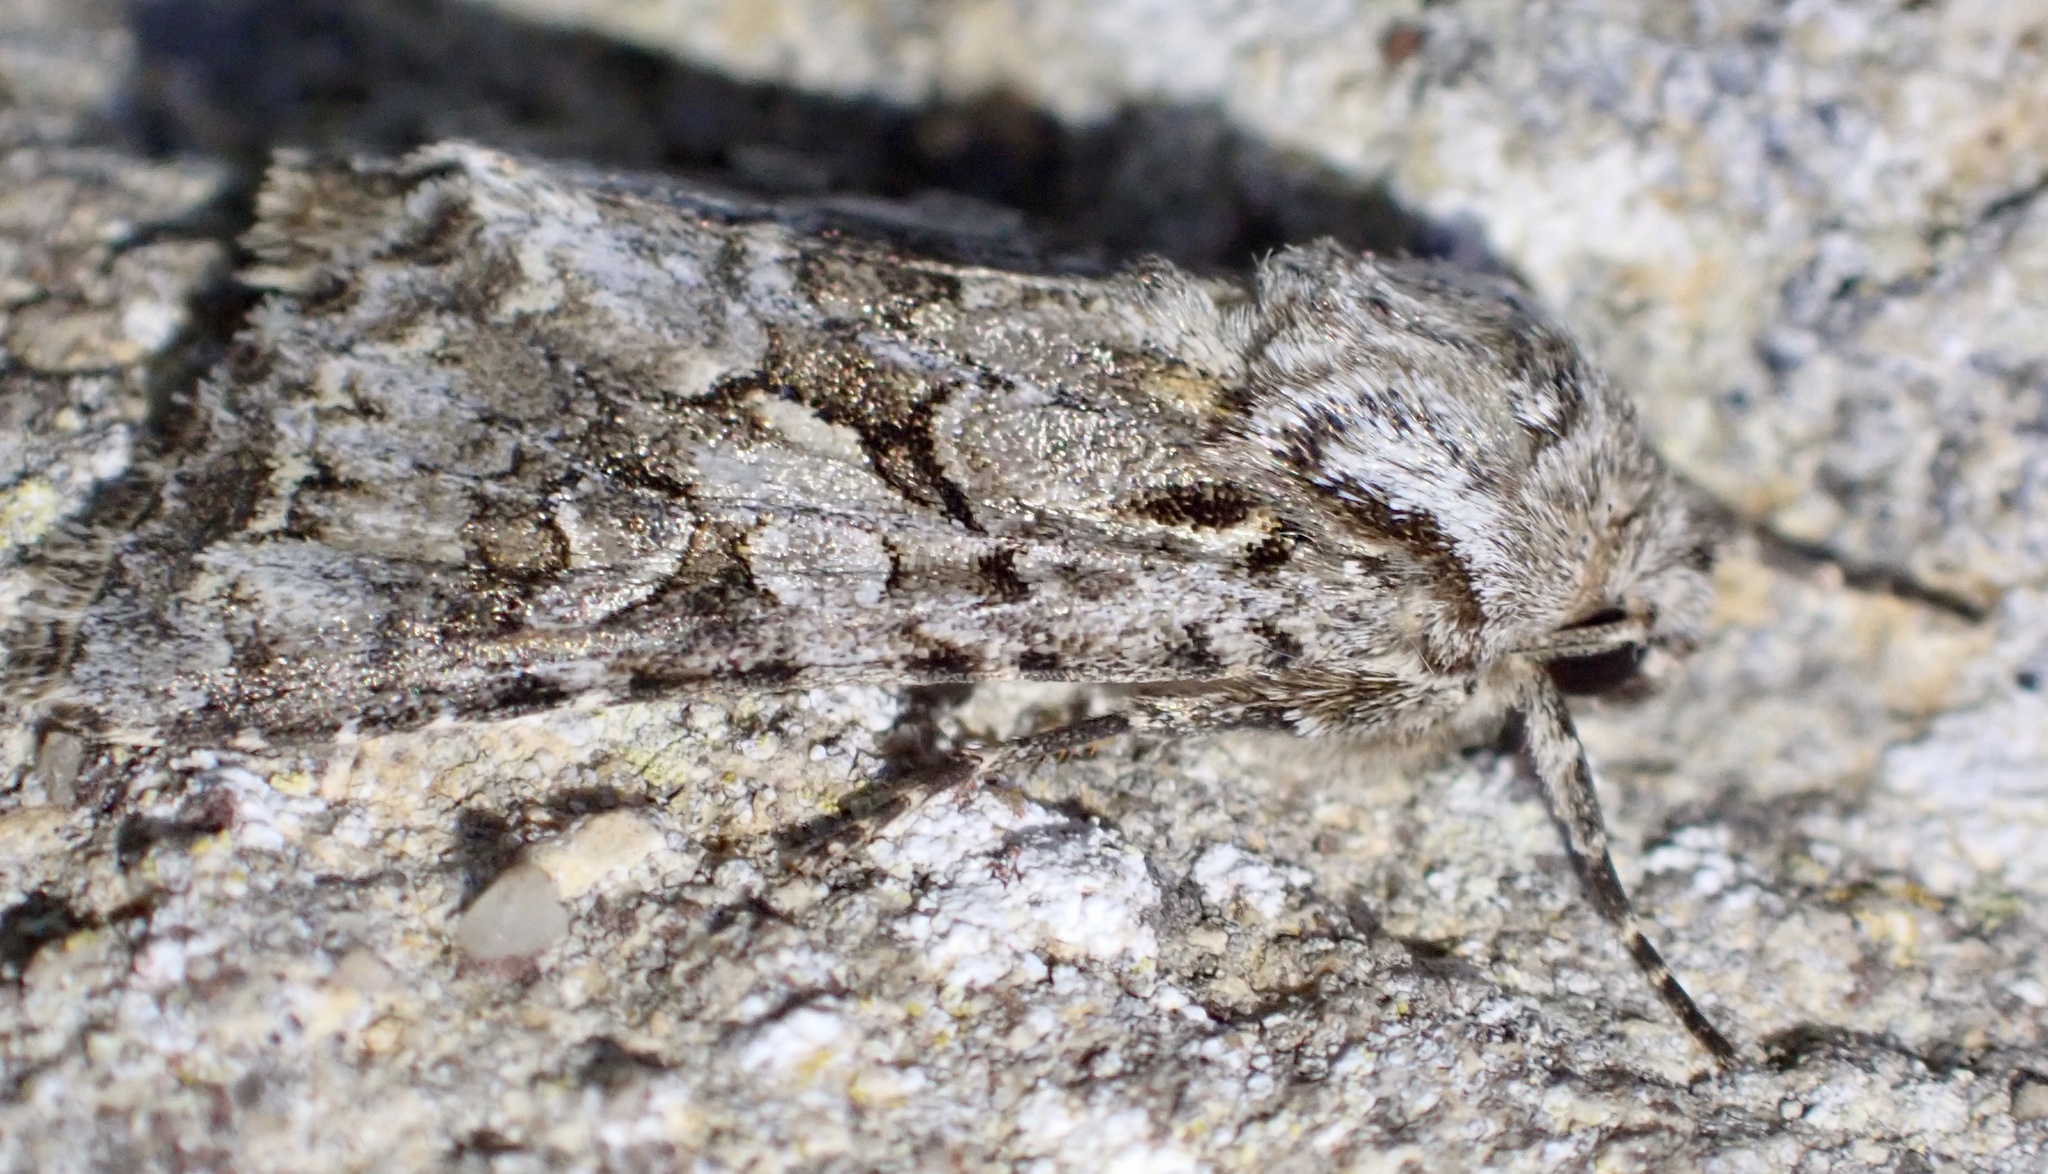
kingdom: Animalia
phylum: Arthropoda
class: Insecta
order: Lepidoptera
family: Noctuidae
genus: Hada
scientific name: Hada plebeja
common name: Shears
